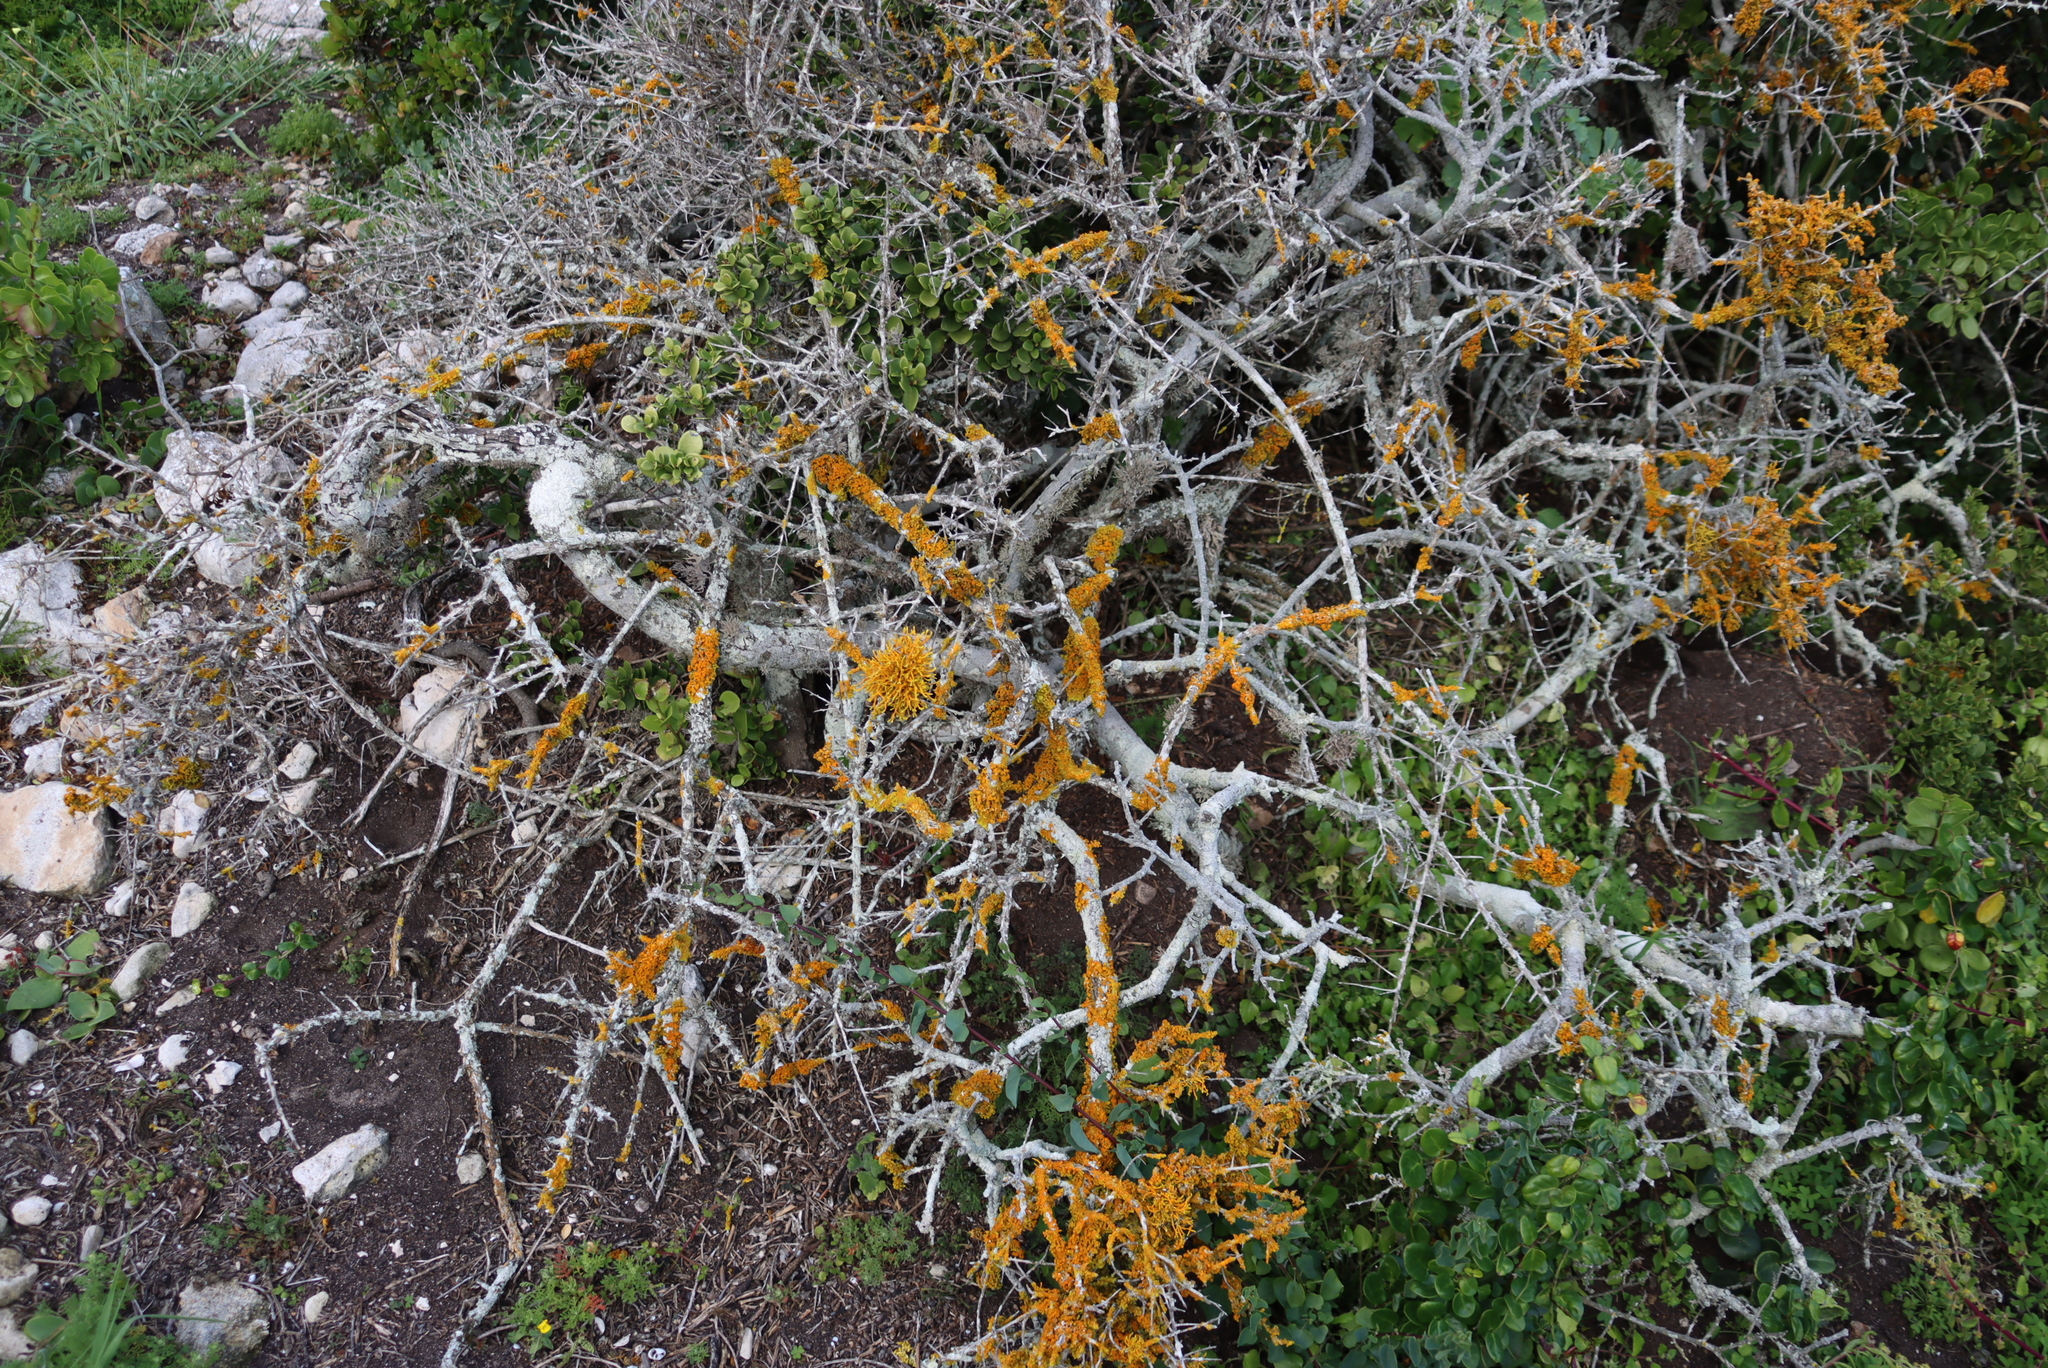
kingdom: Fungi
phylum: Ascomycota
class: Lecanoromycetes
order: Teloschistales
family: Teloschistaceae
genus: Dufourea
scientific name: Dufourea flammea
